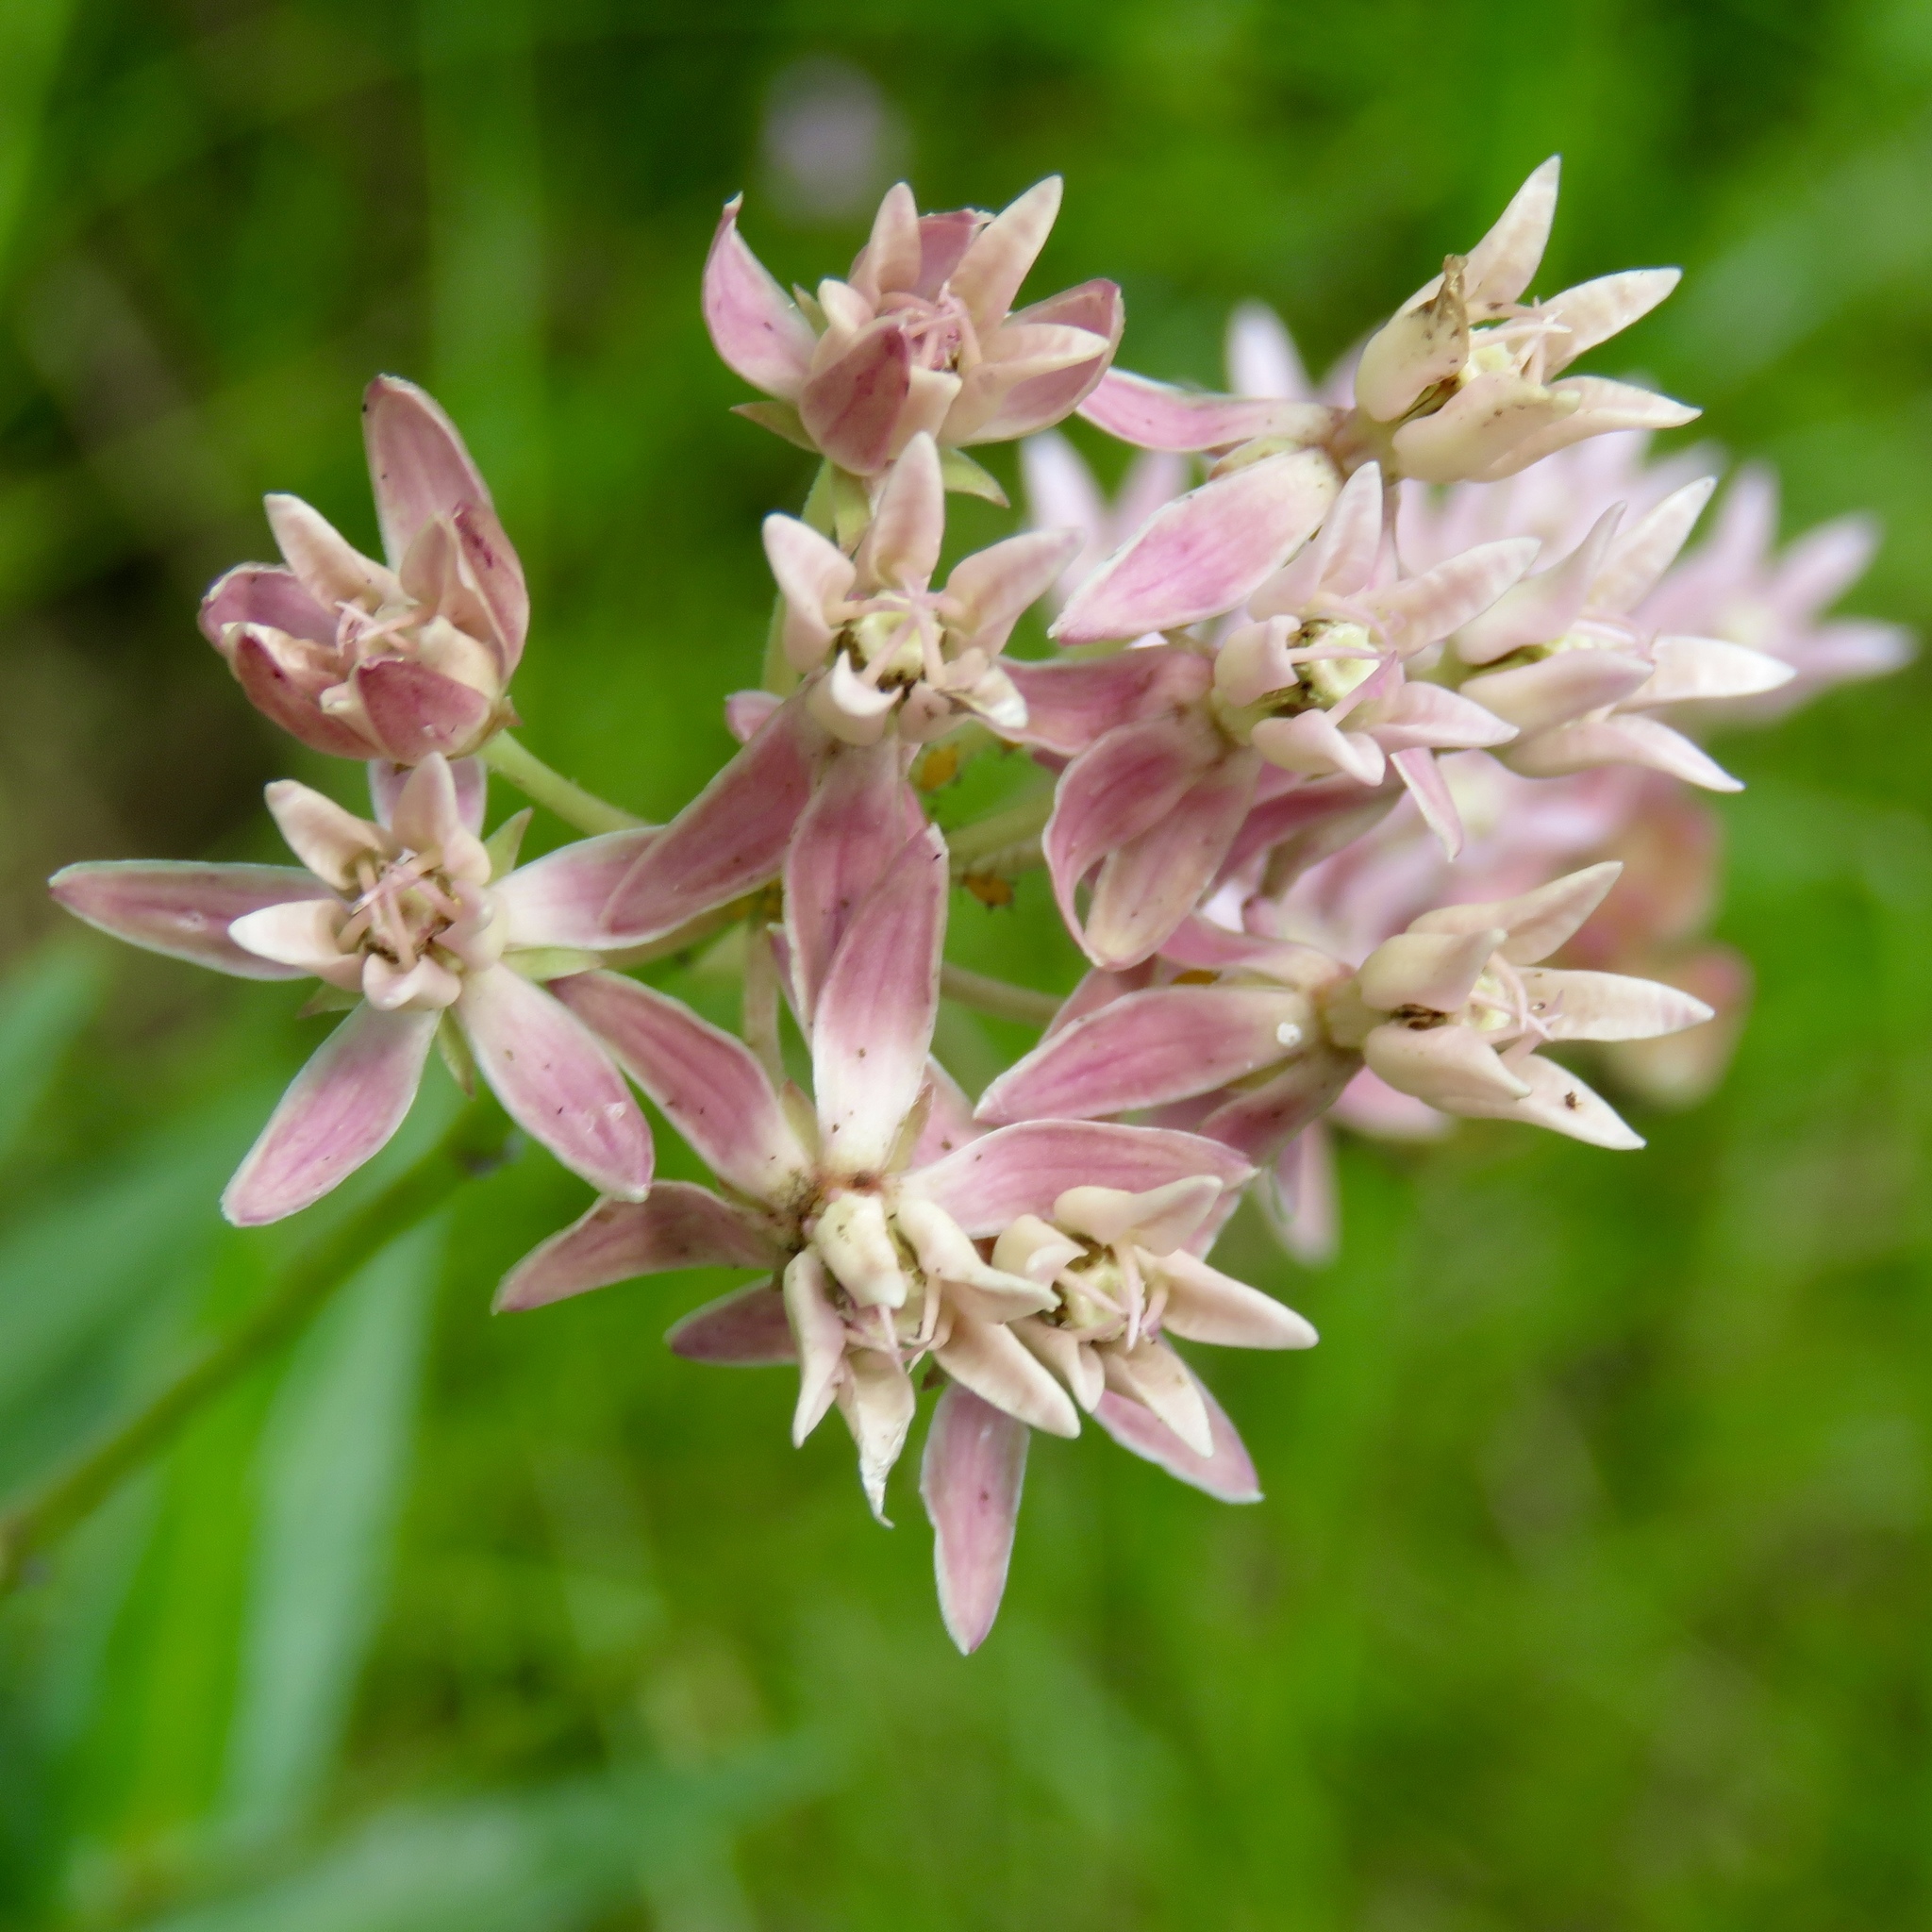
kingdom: Plantae
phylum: Tracheophyta
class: Magnoliopsida
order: Gentianales
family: Apocynaceae
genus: Asclepias
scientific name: Asclepias rubra
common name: Red milkweed
